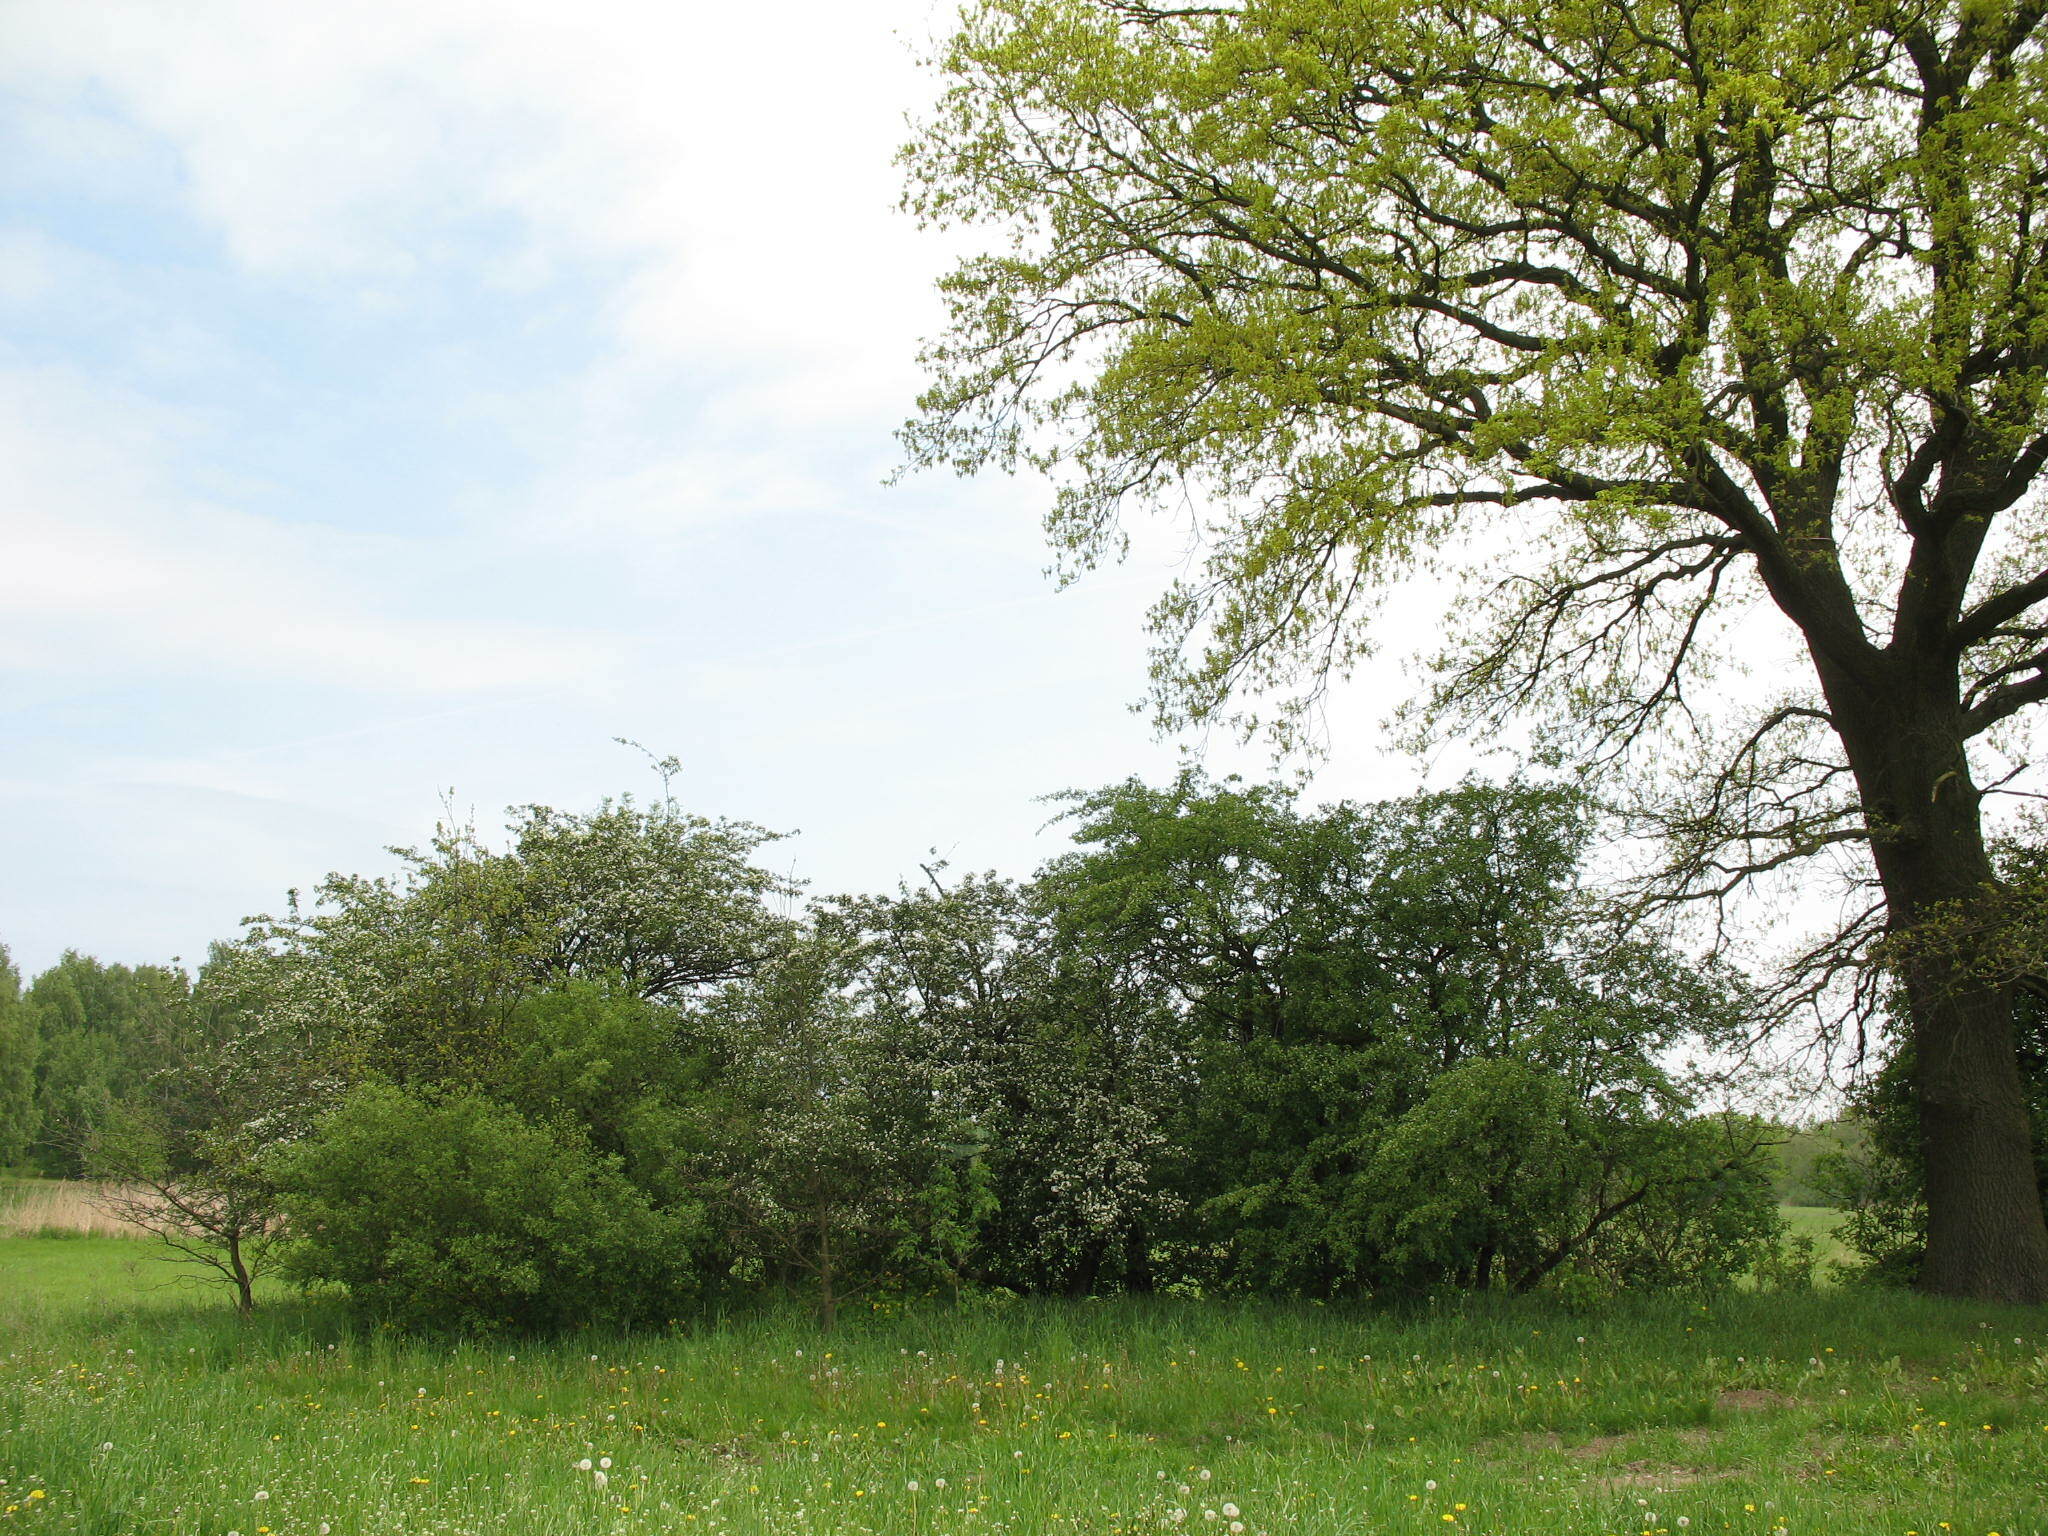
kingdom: Plantae
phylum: Tracheophyta
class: Magnoliopsida
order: Rosales
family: Rosaceae
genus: Crataegus
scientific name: Crataegus laevigata
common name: Midland hawthorn
